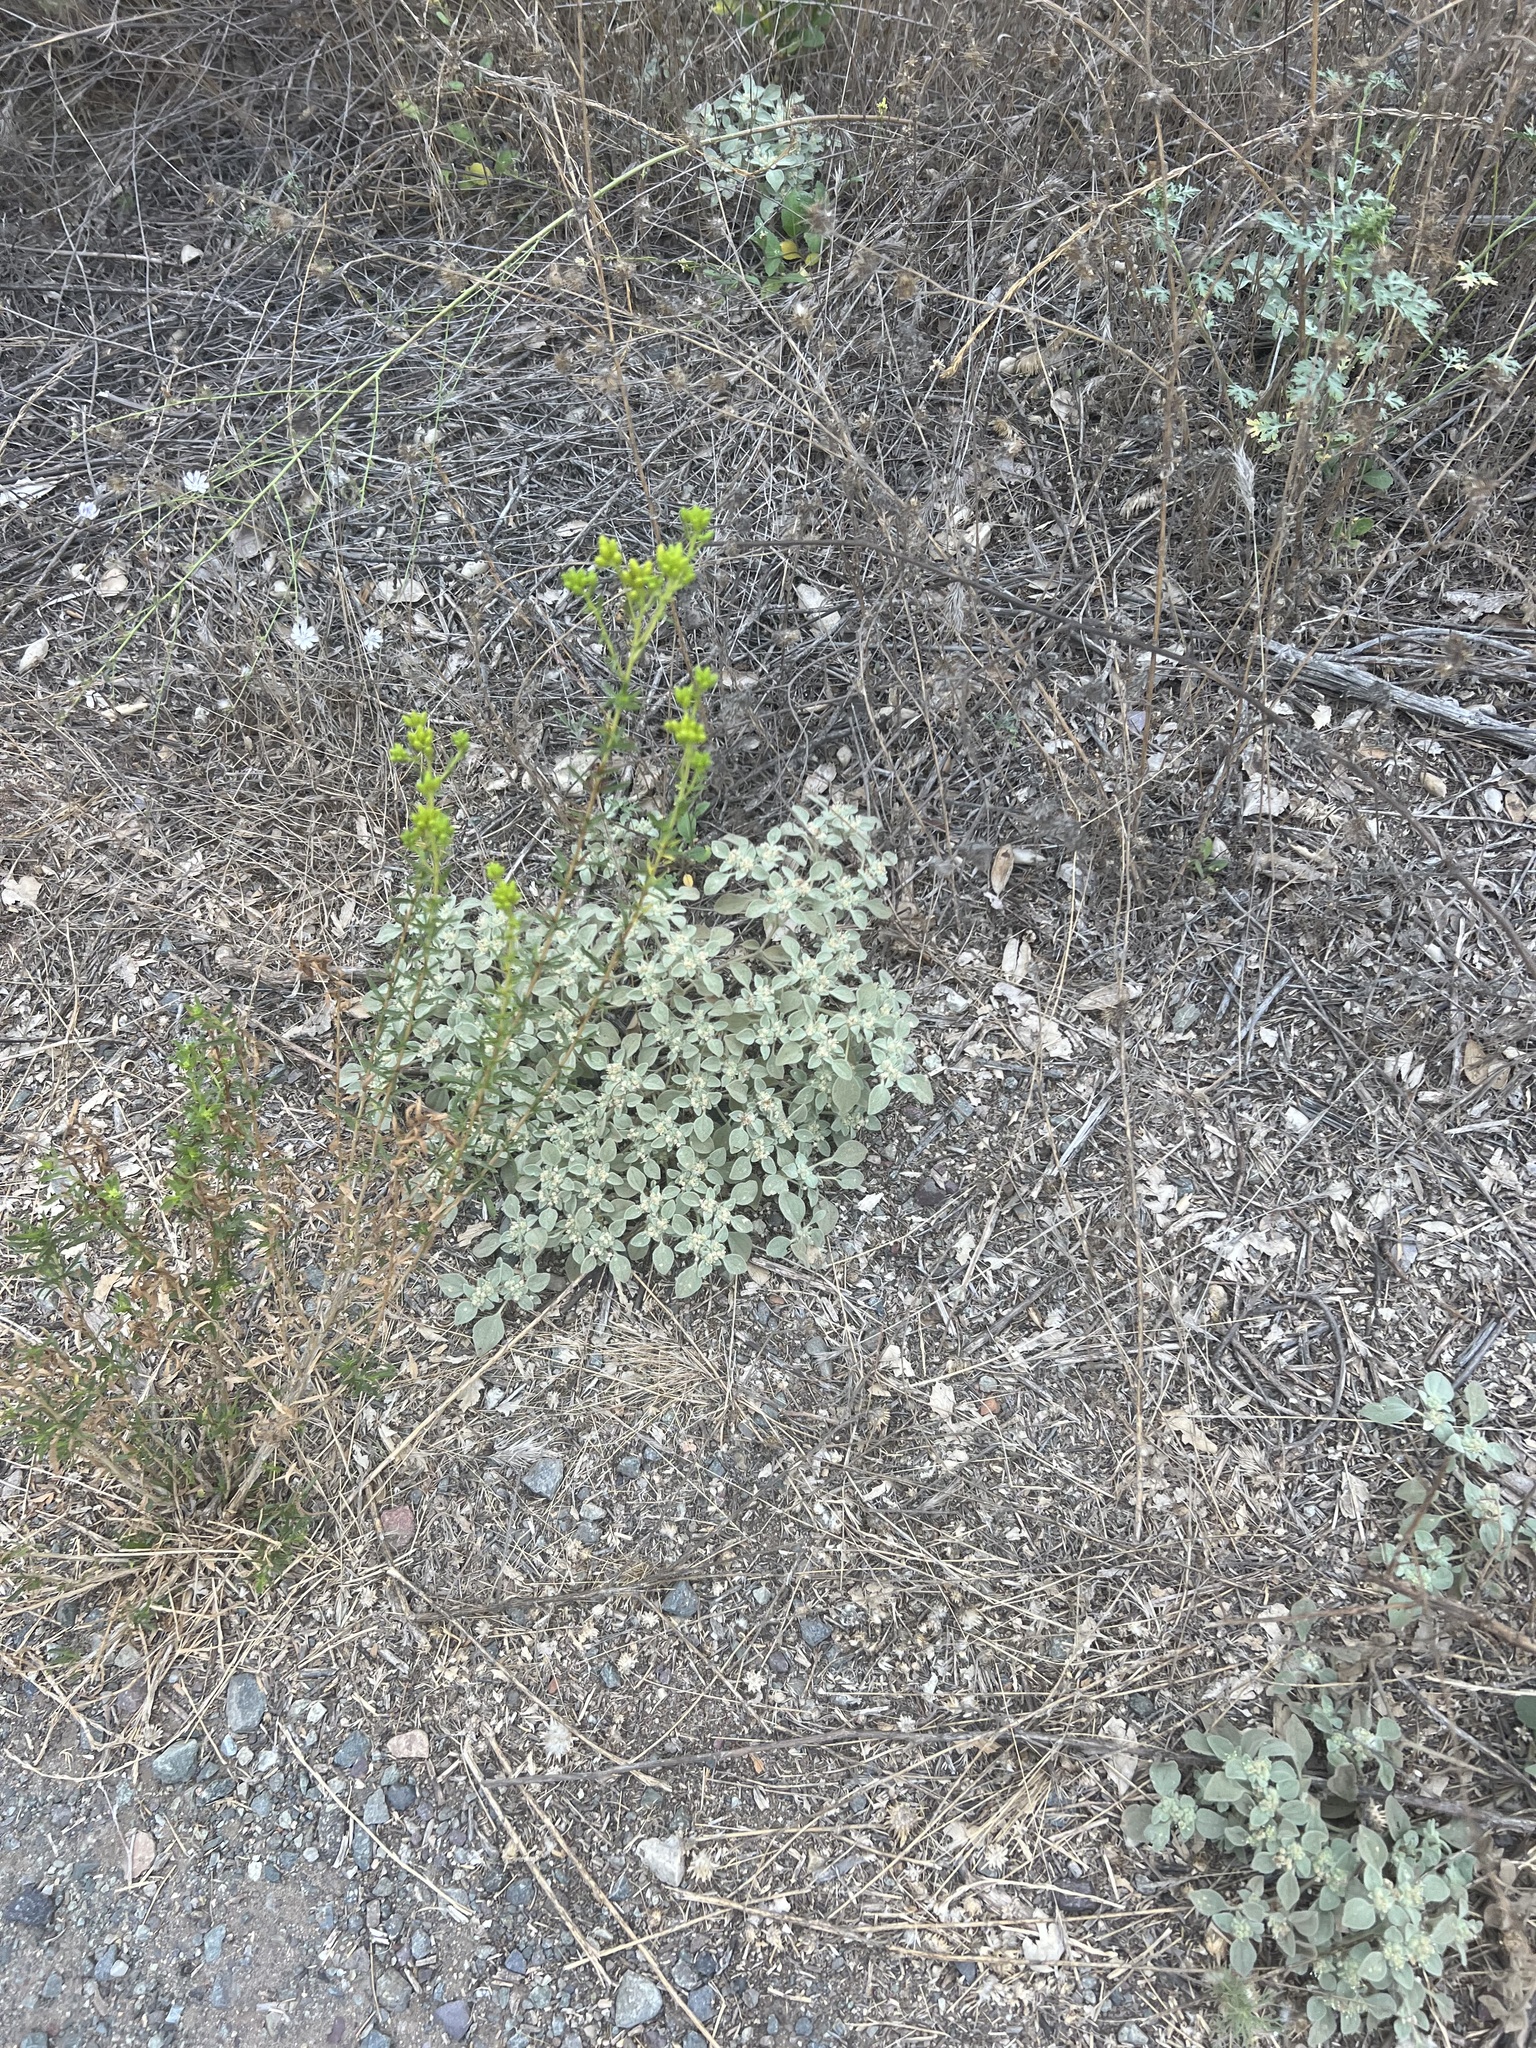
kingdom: Plantae
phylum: Tracheophyta
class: Magnoliopsida
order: Malpighiales
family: Euphorbiaceae
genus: Croton
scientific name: Croton setiger
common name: Dove weed
